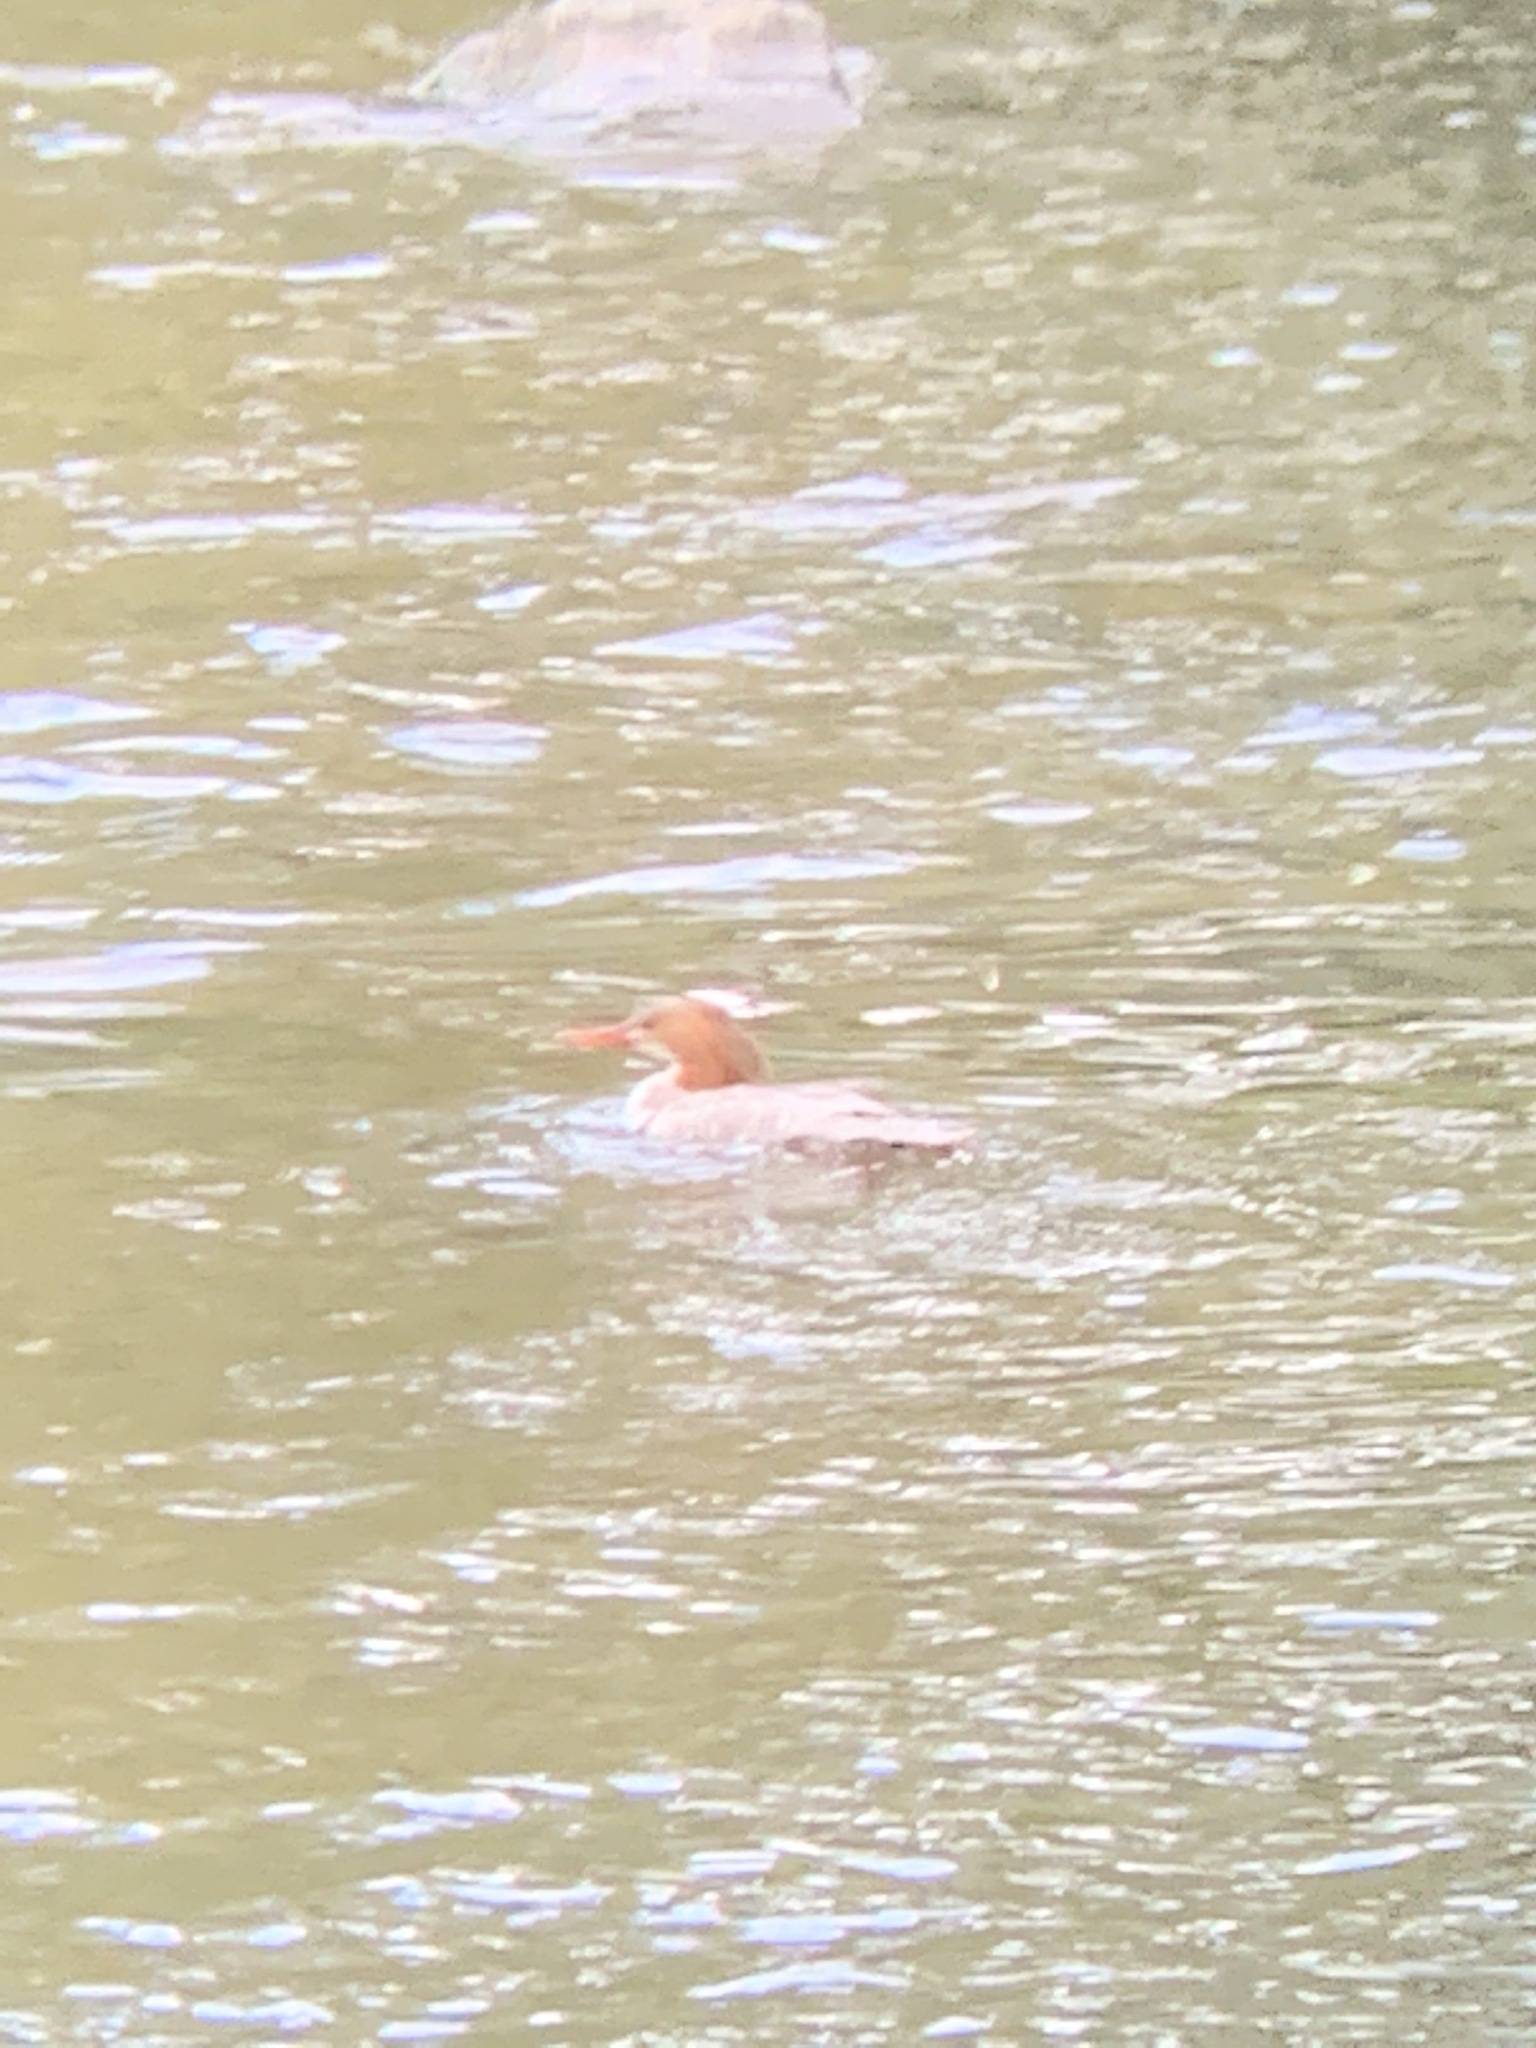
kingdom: Animalia
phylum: Chordata
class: Aves
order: Anseriformes
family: Anatidae
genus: Mergus
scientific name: Mergus merganser
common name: Common merganser
